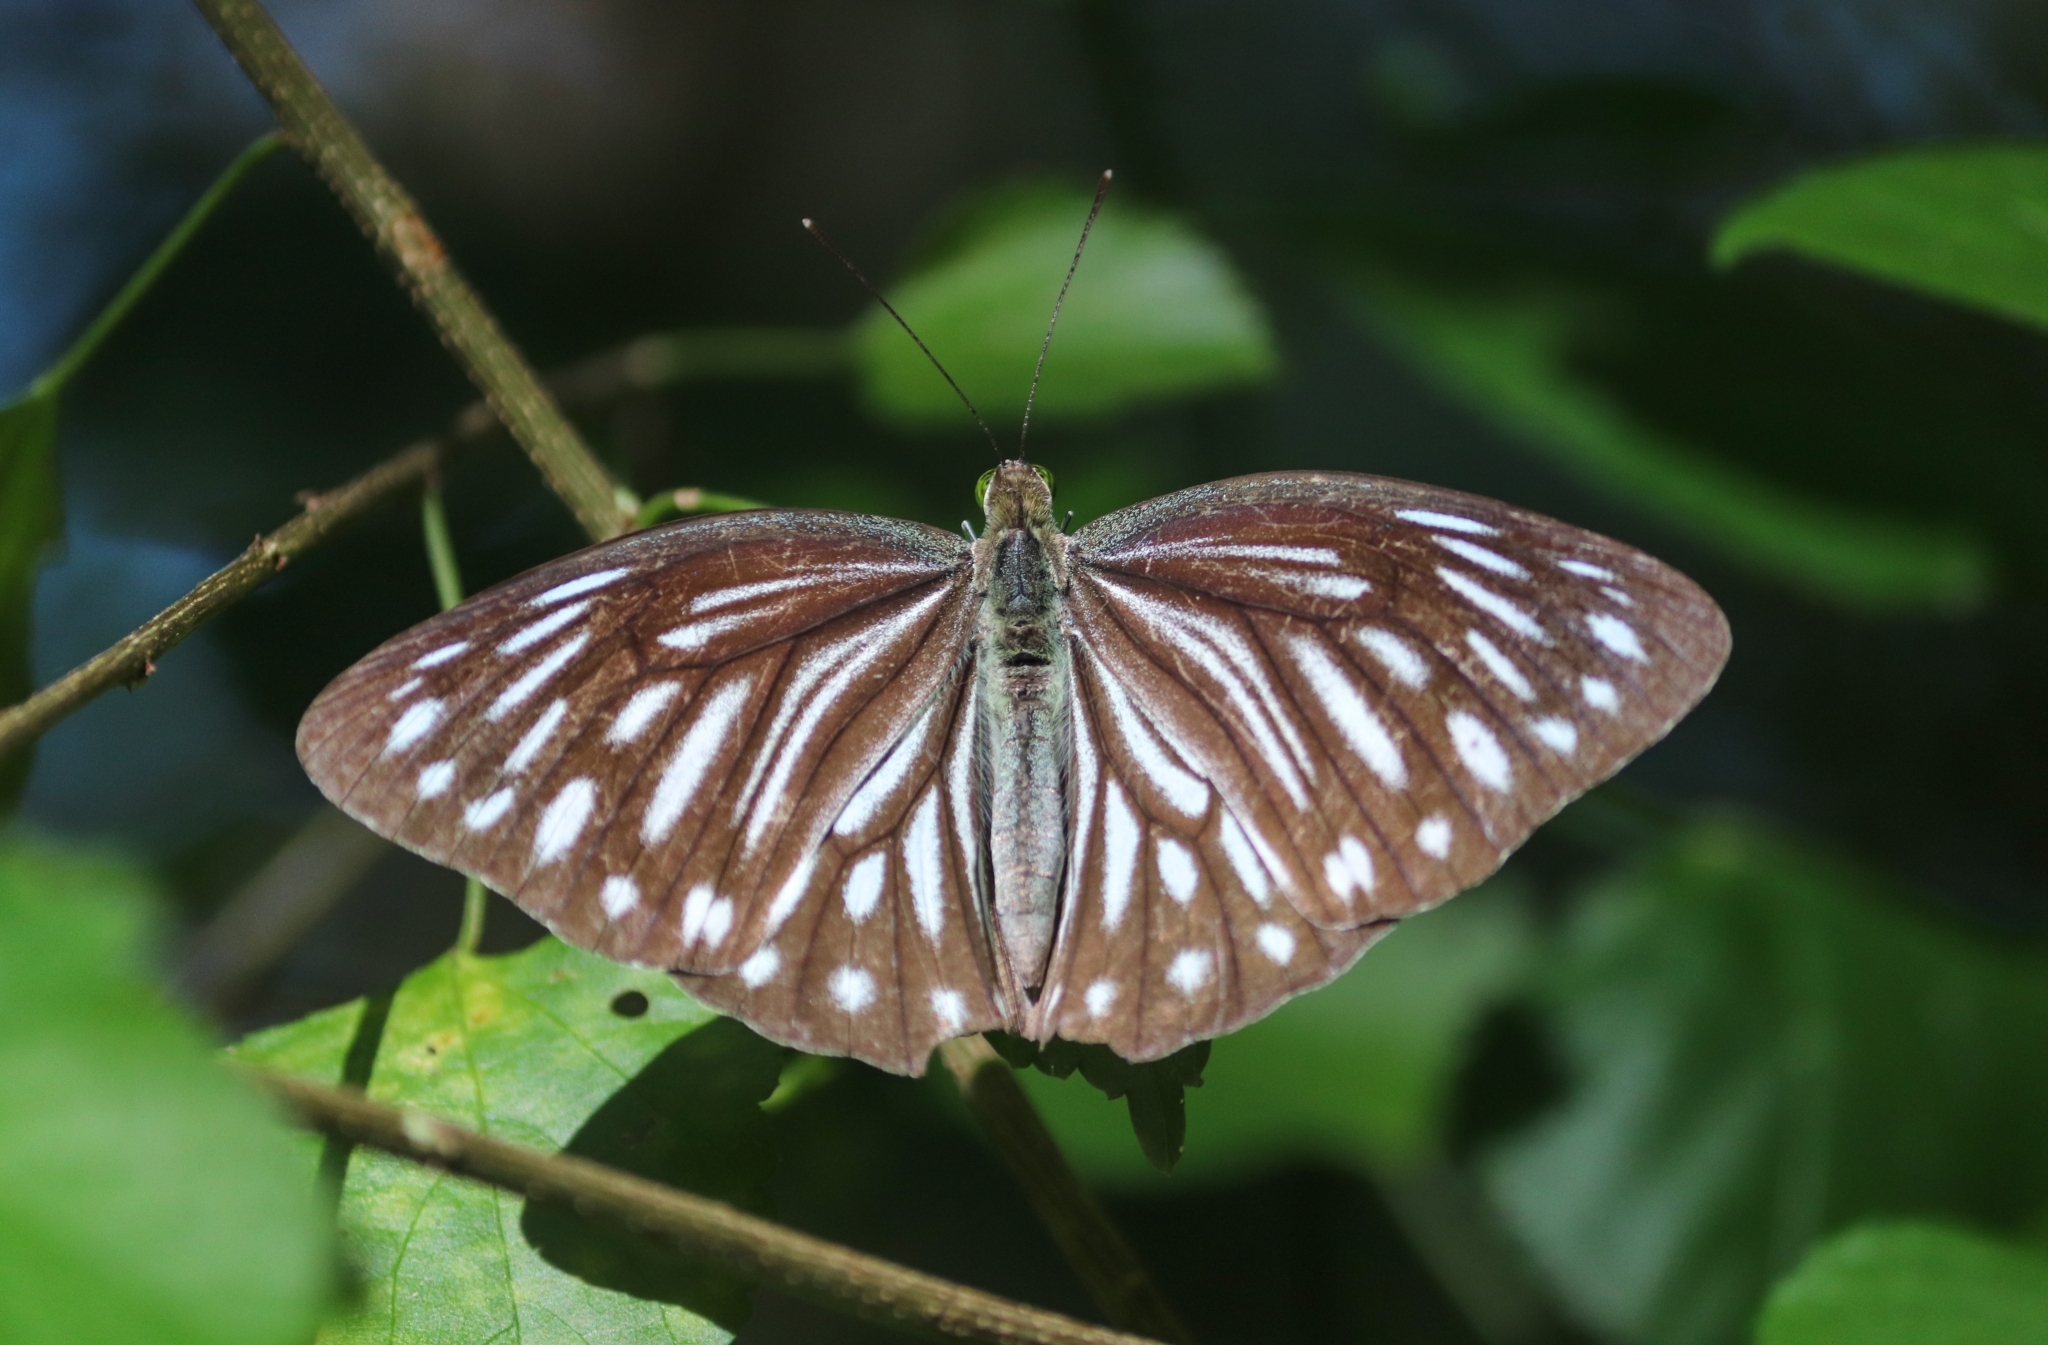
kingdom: Animalia
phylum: Arthropoda
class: Insecta
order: Lepidoptera
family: Pieridae
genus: Pareronia
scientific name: Pareronia ceylanica
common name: Dark wanderer
